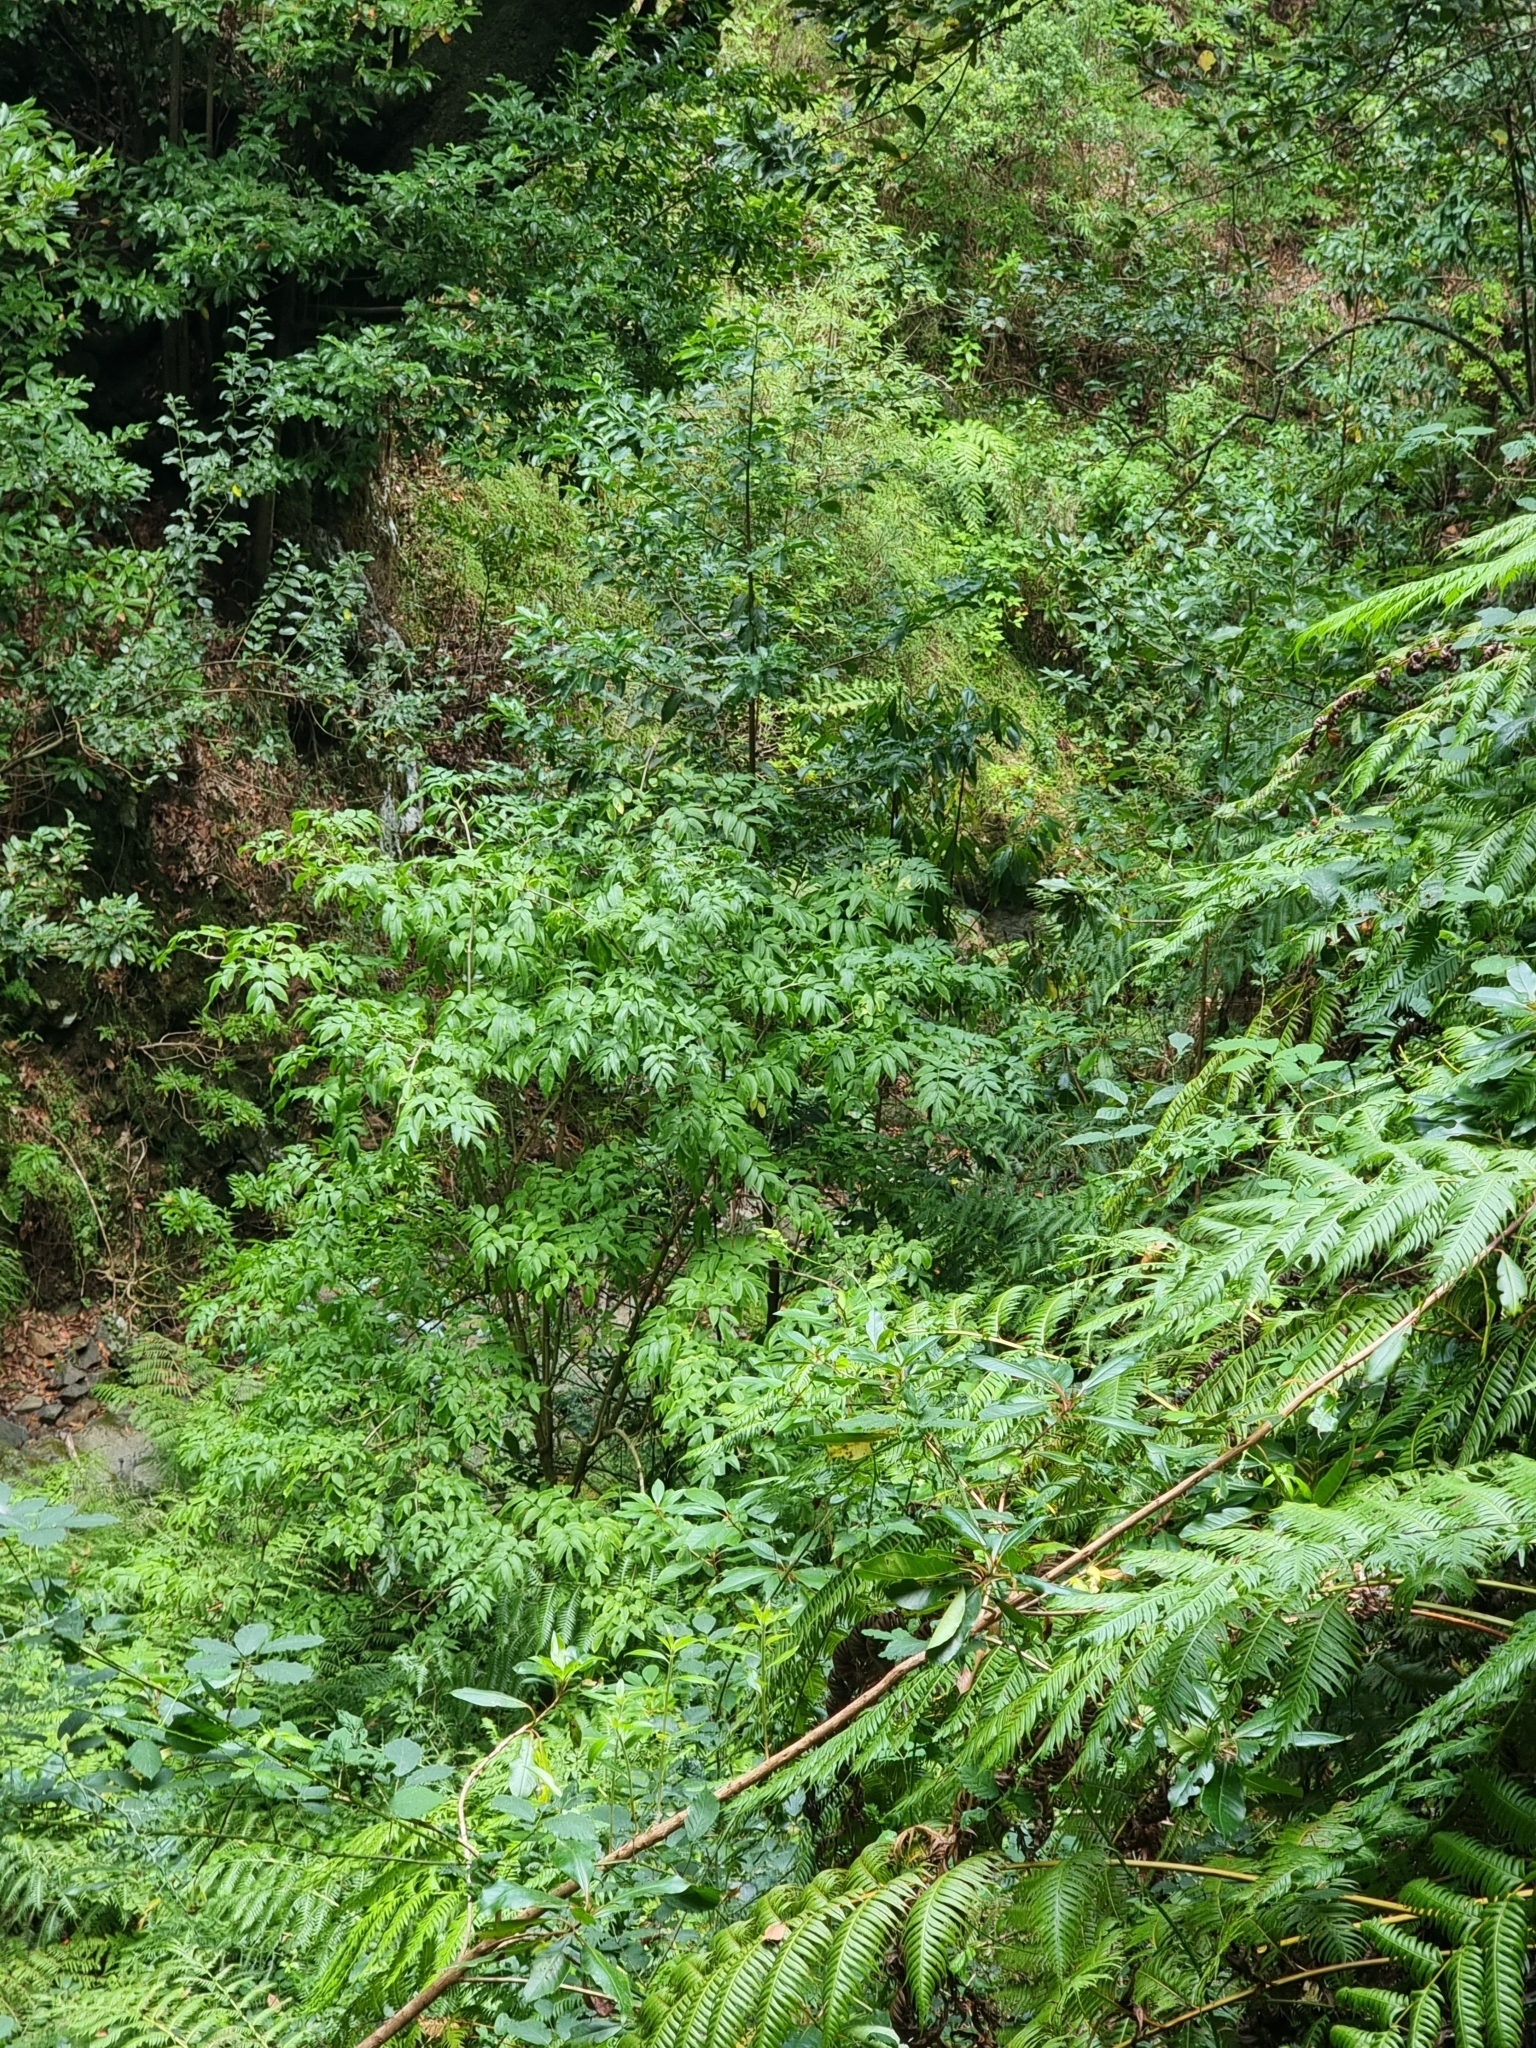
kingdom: Plantae
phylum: Tracheophyta
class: Magnoliopsida
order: Dipsacales
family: Viburnaceae
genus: Sambucus
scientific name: Sambucus lanceolata
